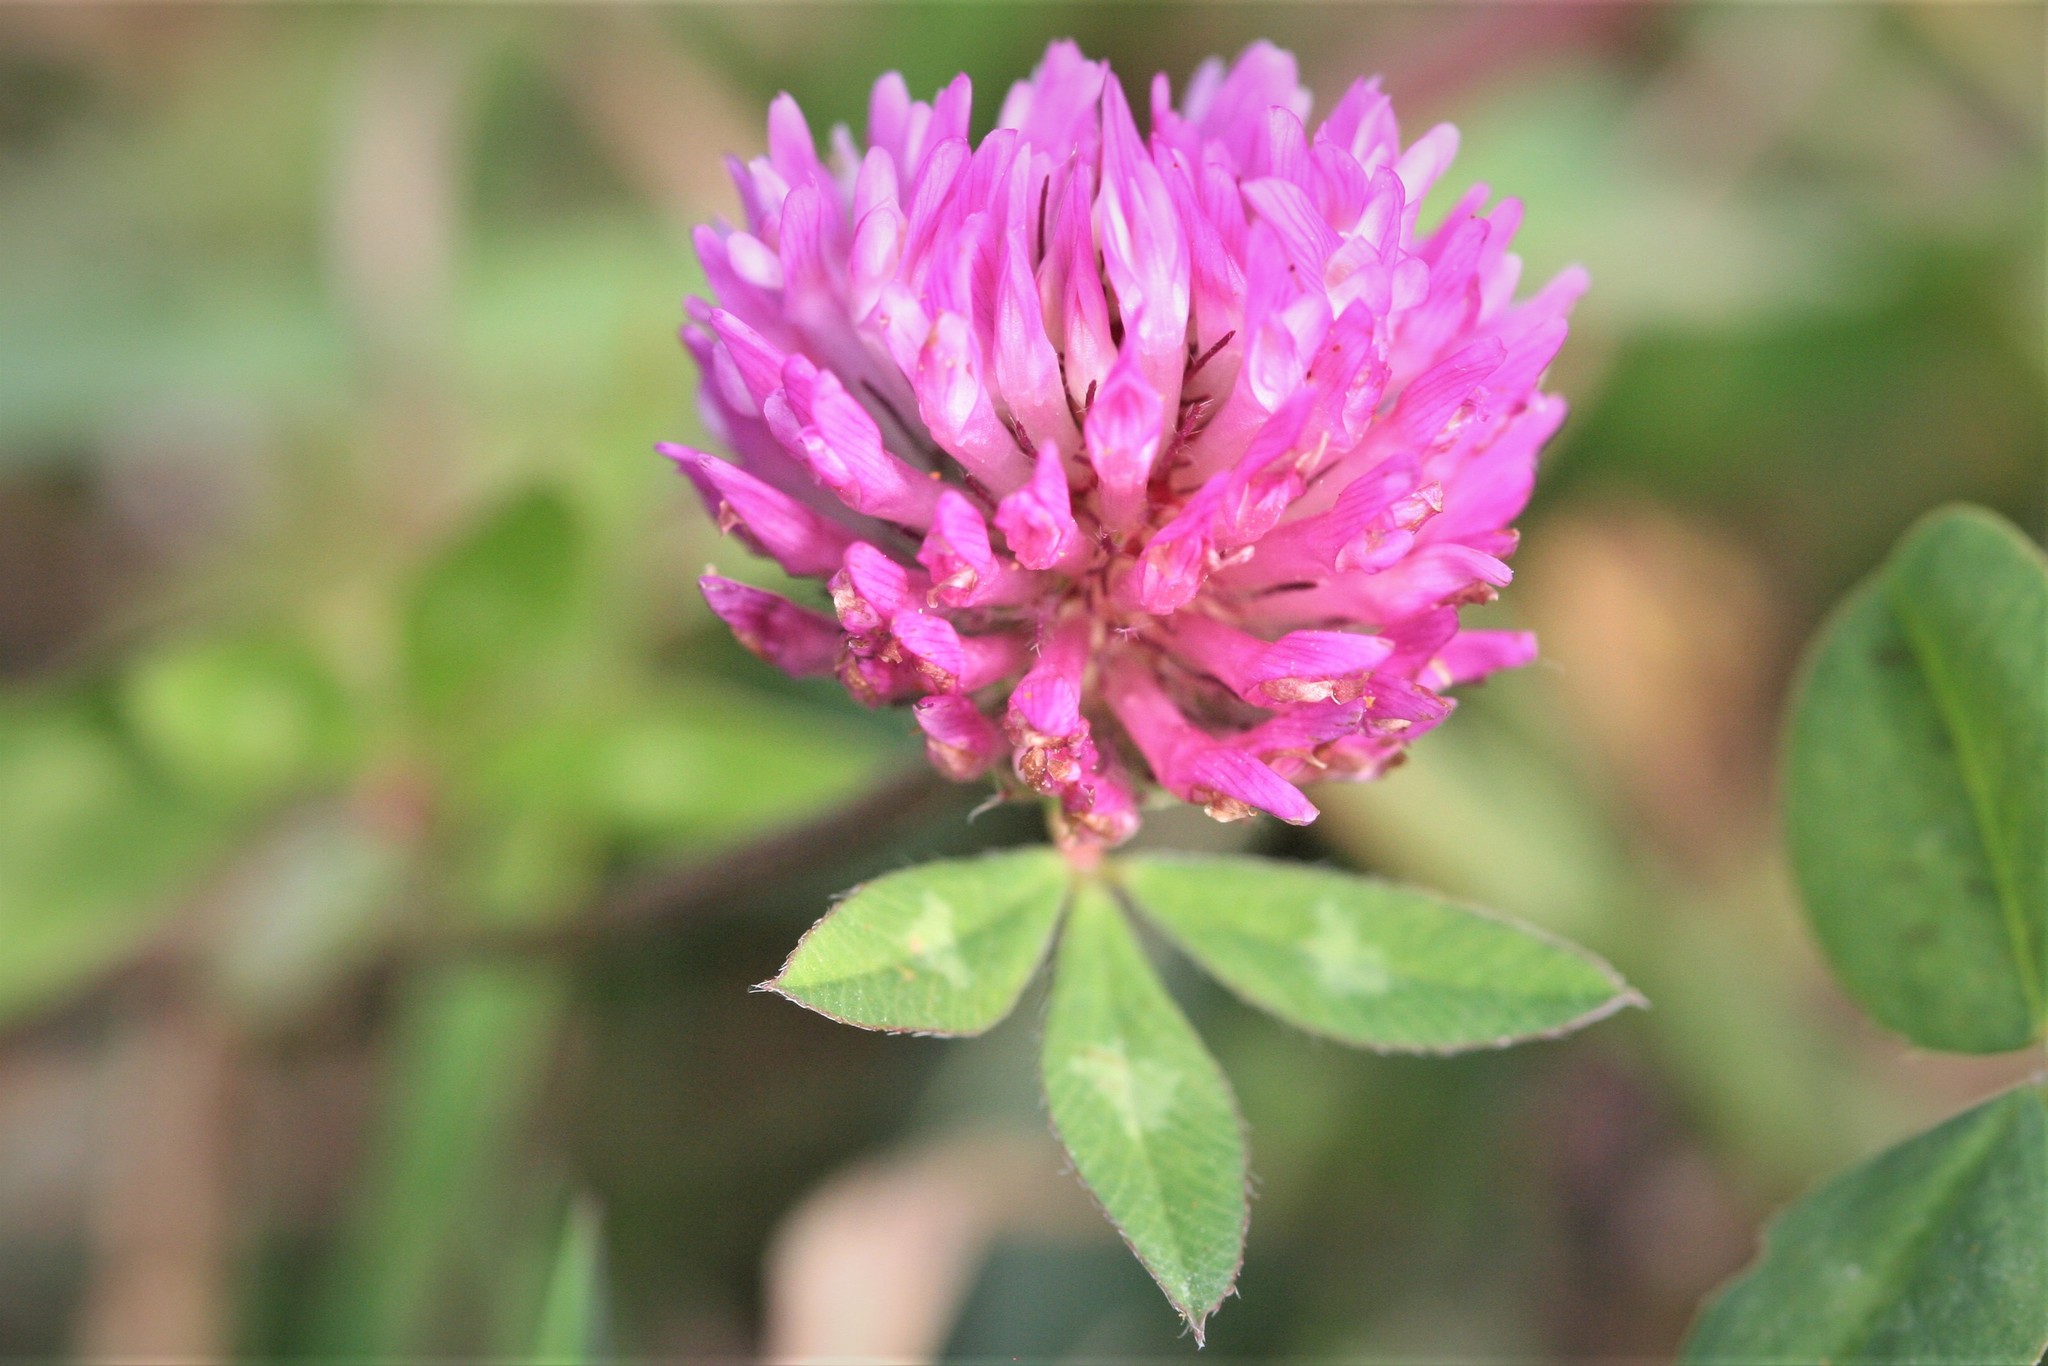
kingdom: Plantae
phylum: Tracheophyta
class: Magnoliopsida
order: Fabales
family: Fabaceae
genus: Trifolium
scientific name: Trifolium pratense
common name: Red clover
